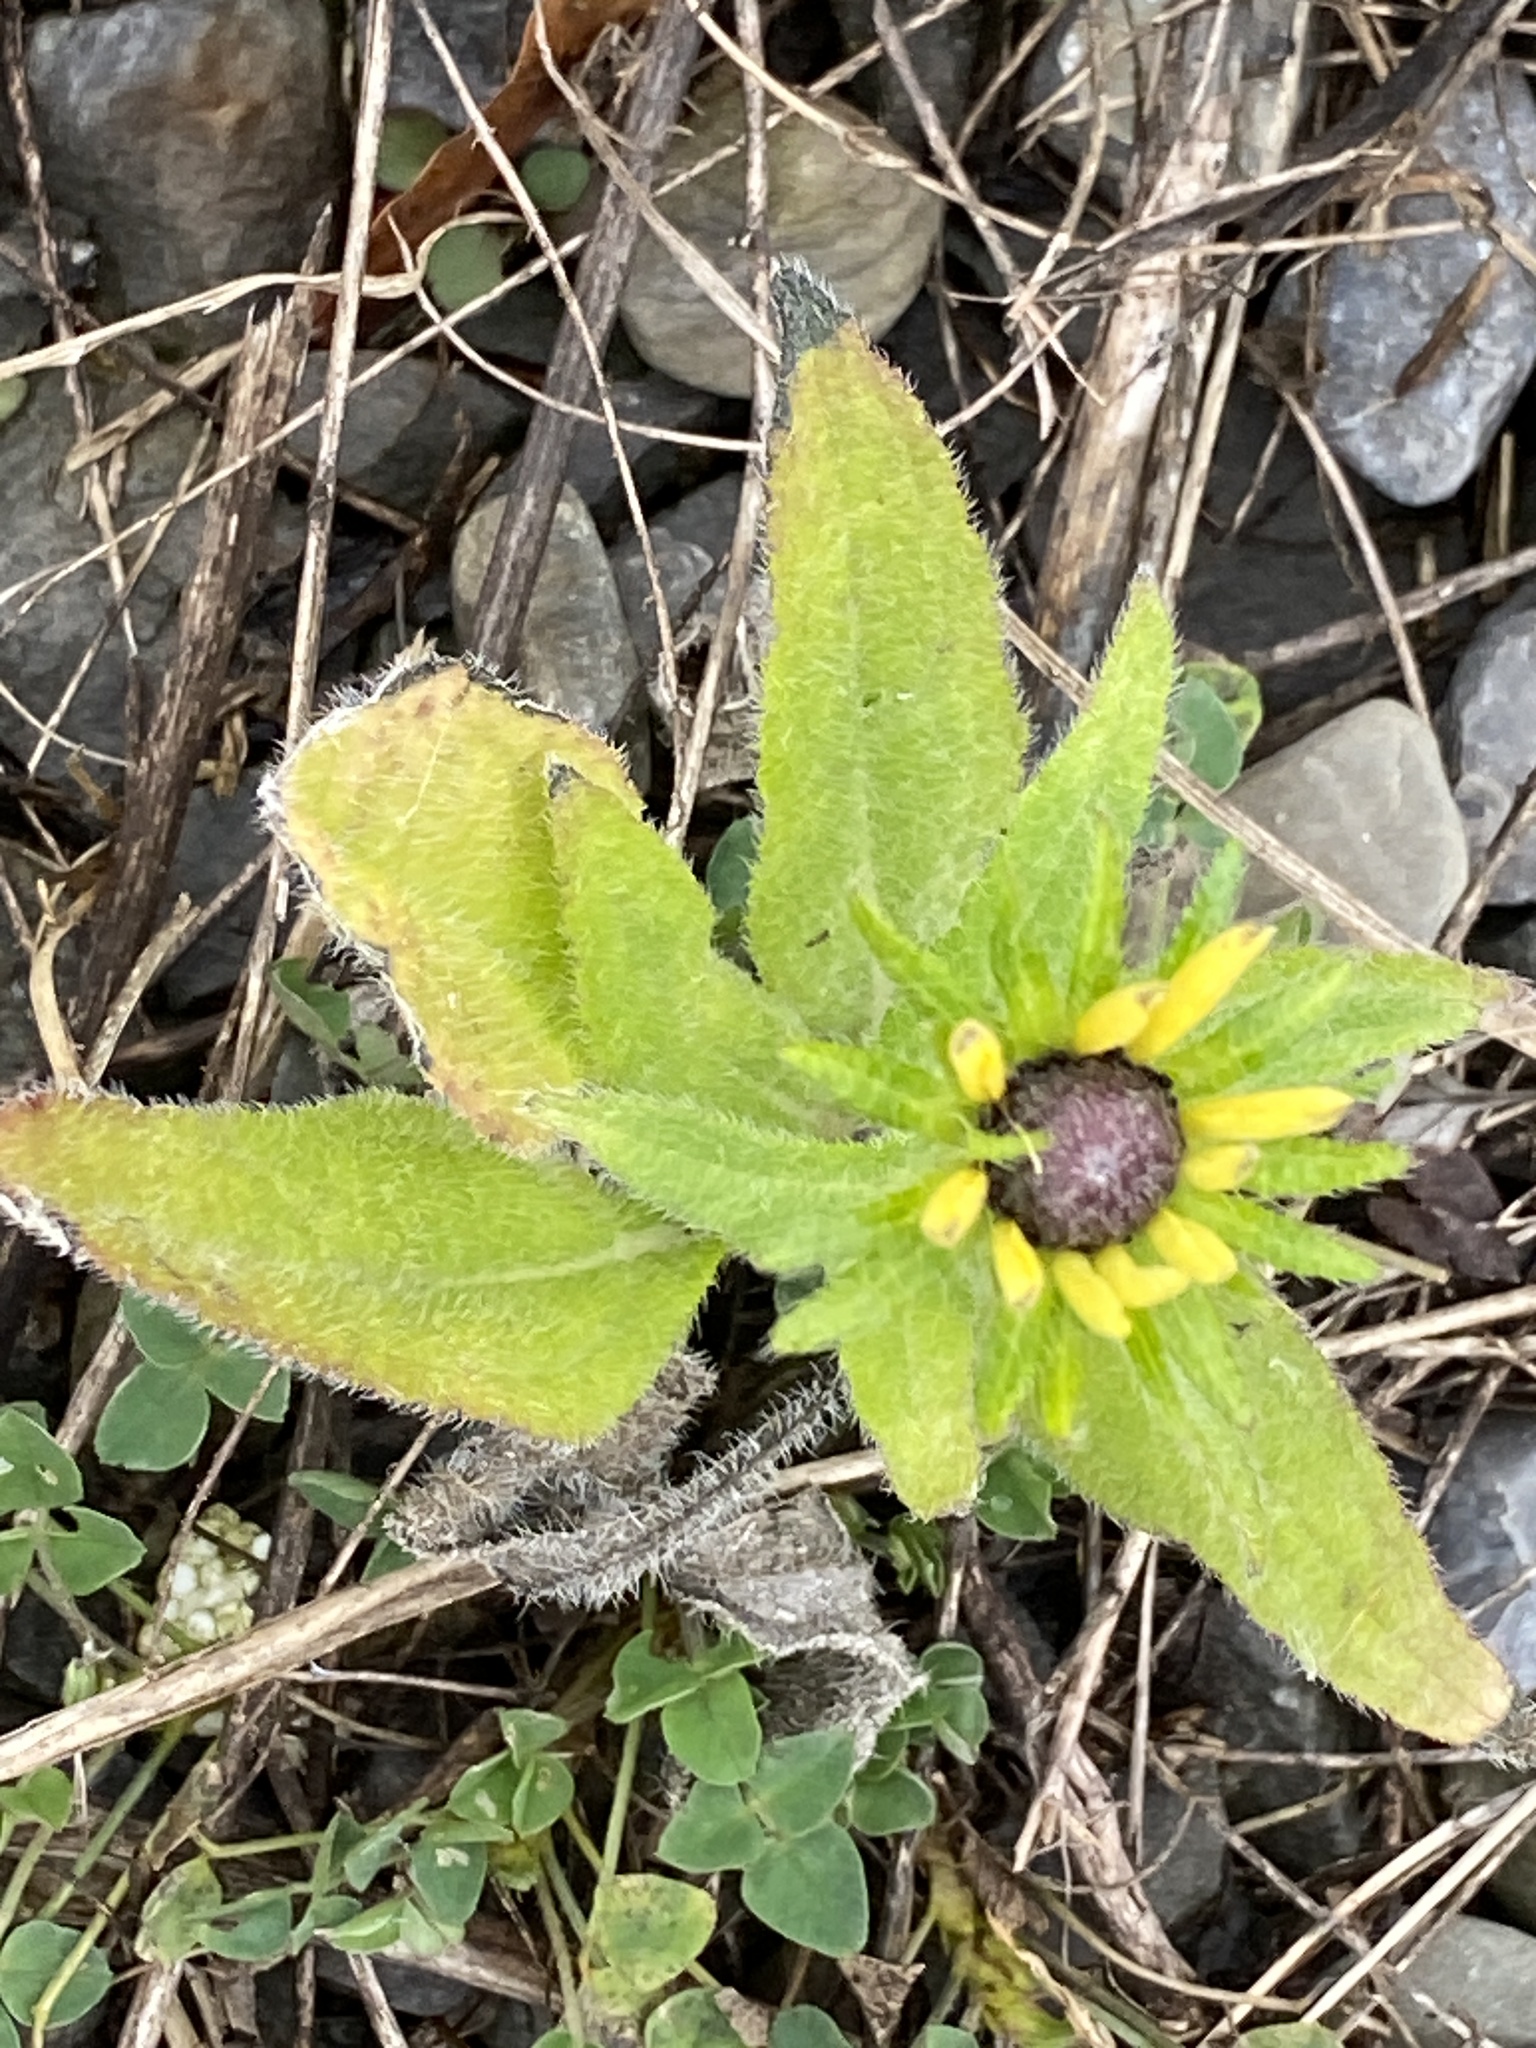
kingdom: Plantae
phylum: Tracheophyta
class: Magnoliopsida
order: Asterales
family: Asteraceae
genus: Rudbeckia
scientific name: Rudbeckia hirta
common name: Black-eyed-susan
